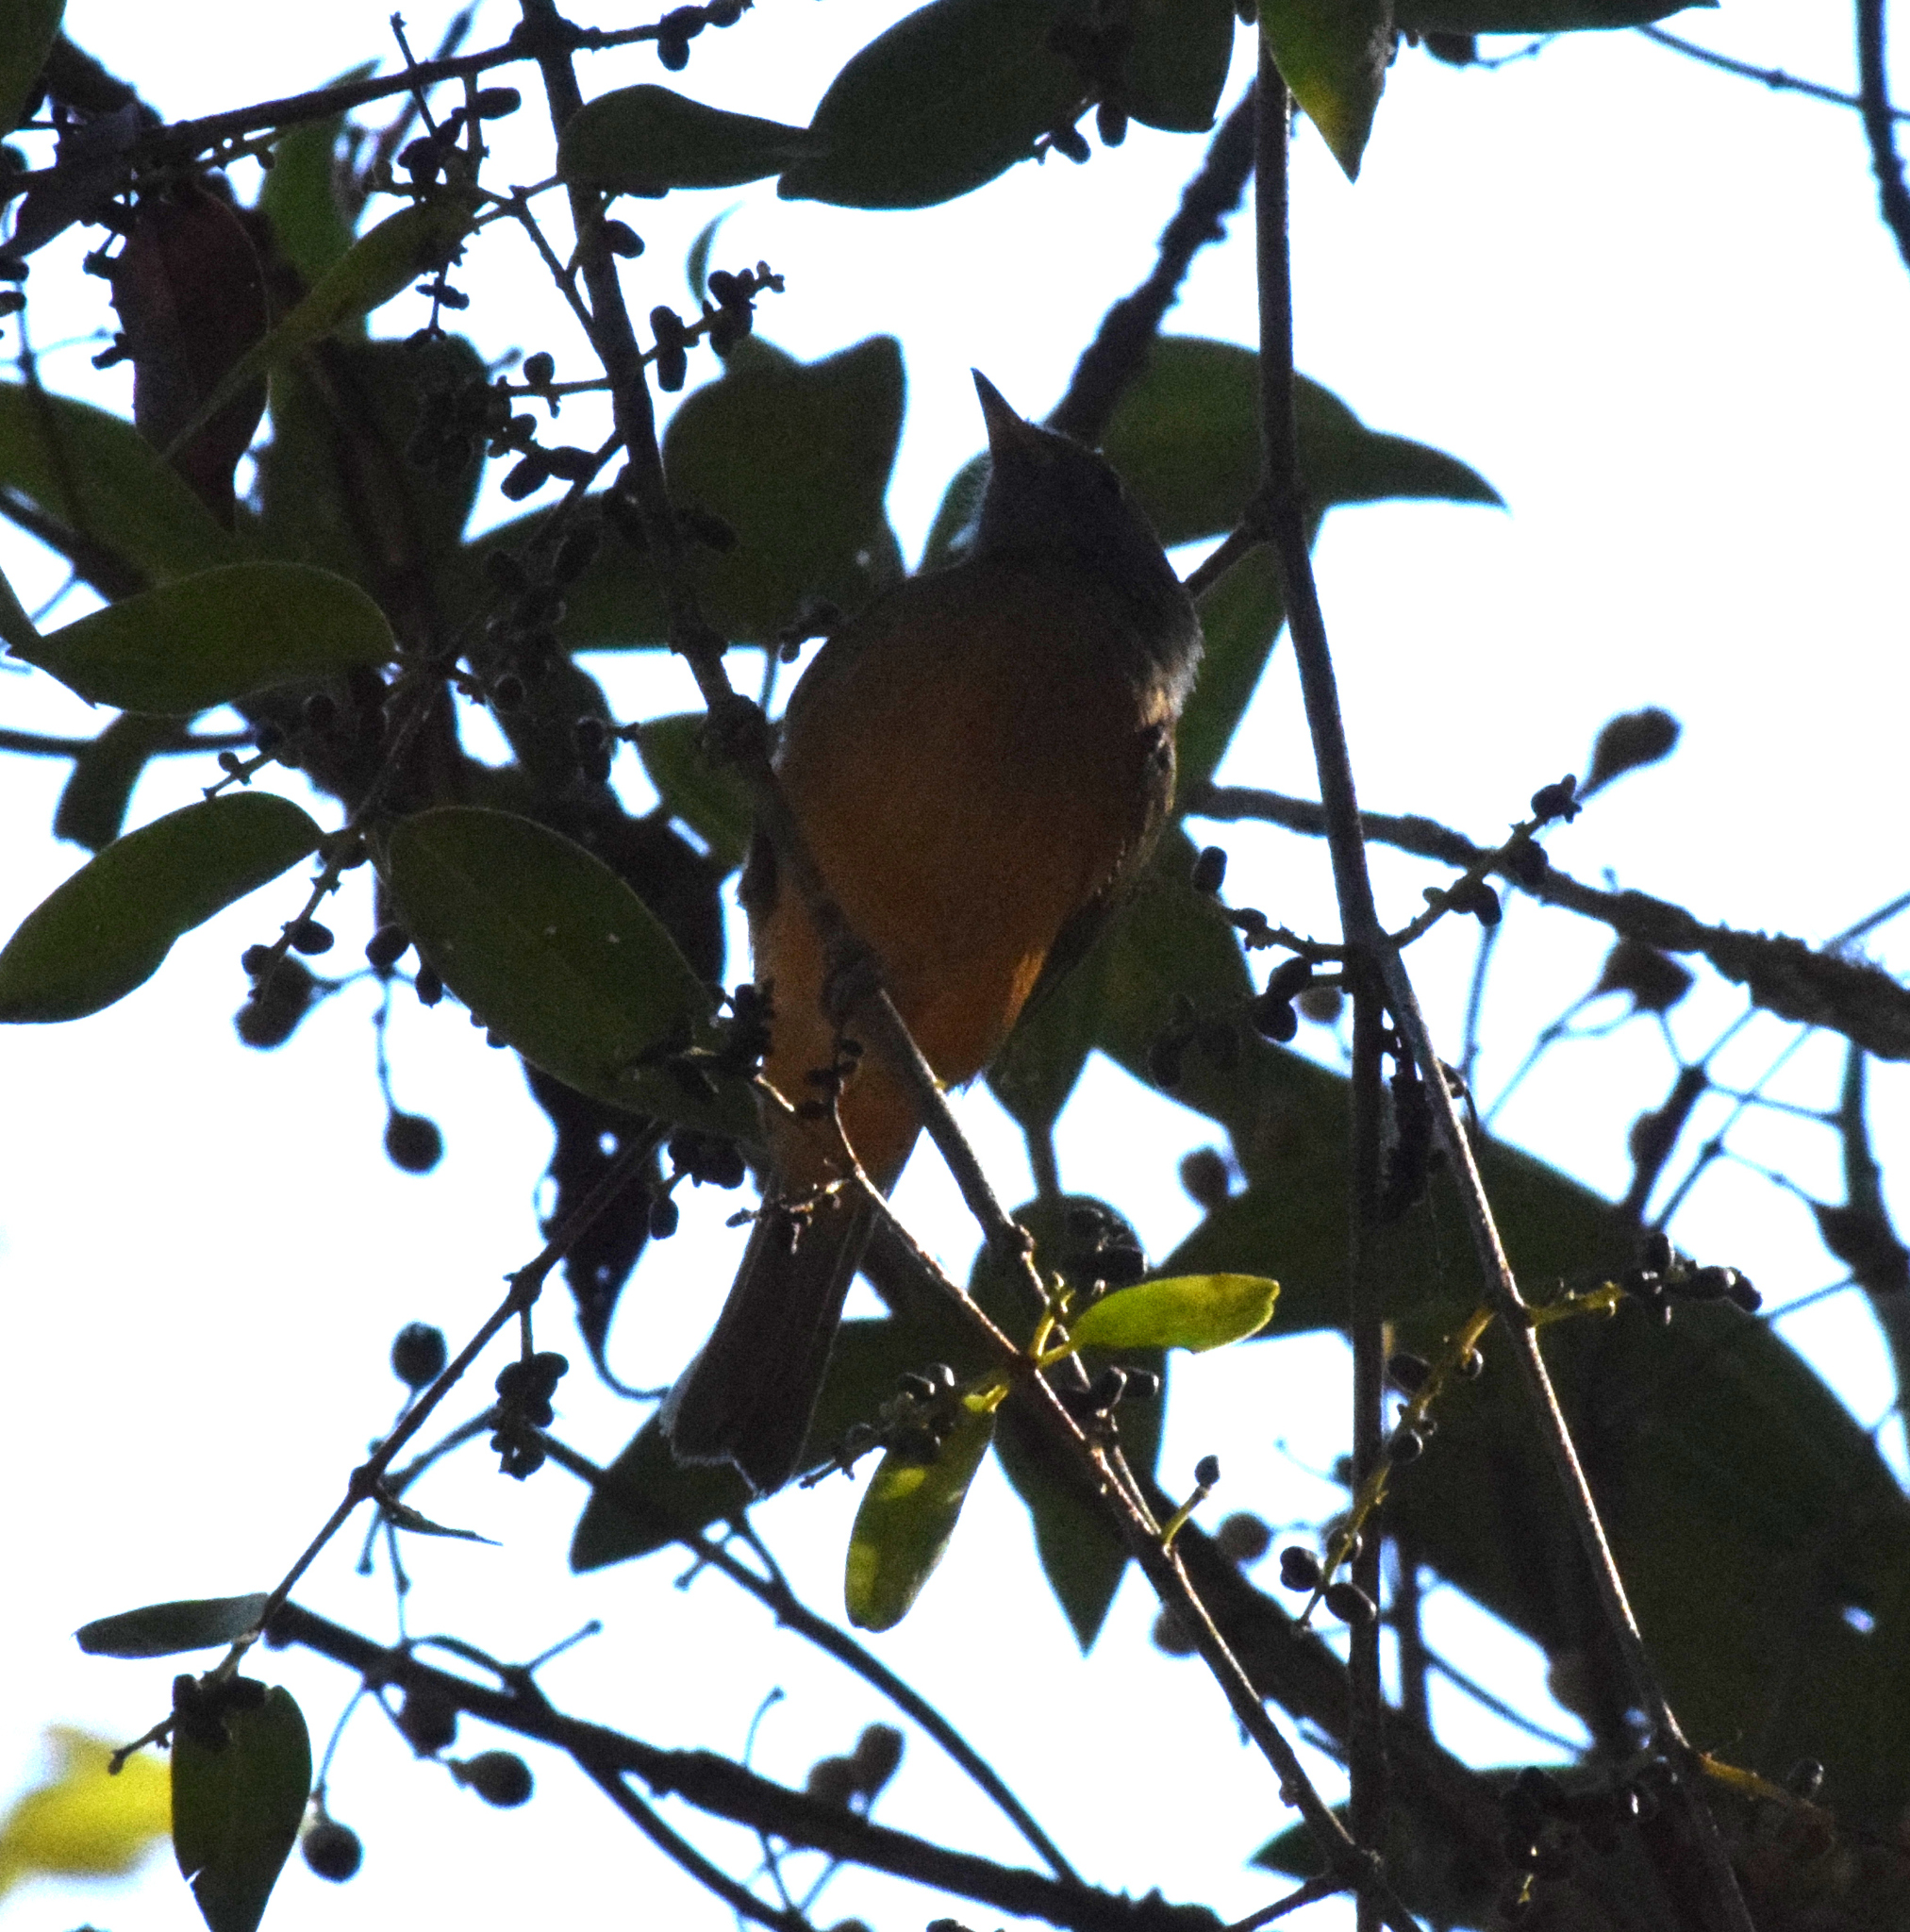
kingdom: Animalia
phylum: Chordata
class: Aves
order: Passeriformes
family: Tyrannidae
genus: Mionectes
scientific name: Mionectes rufiventris
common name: Grey-hooded flycatcher
